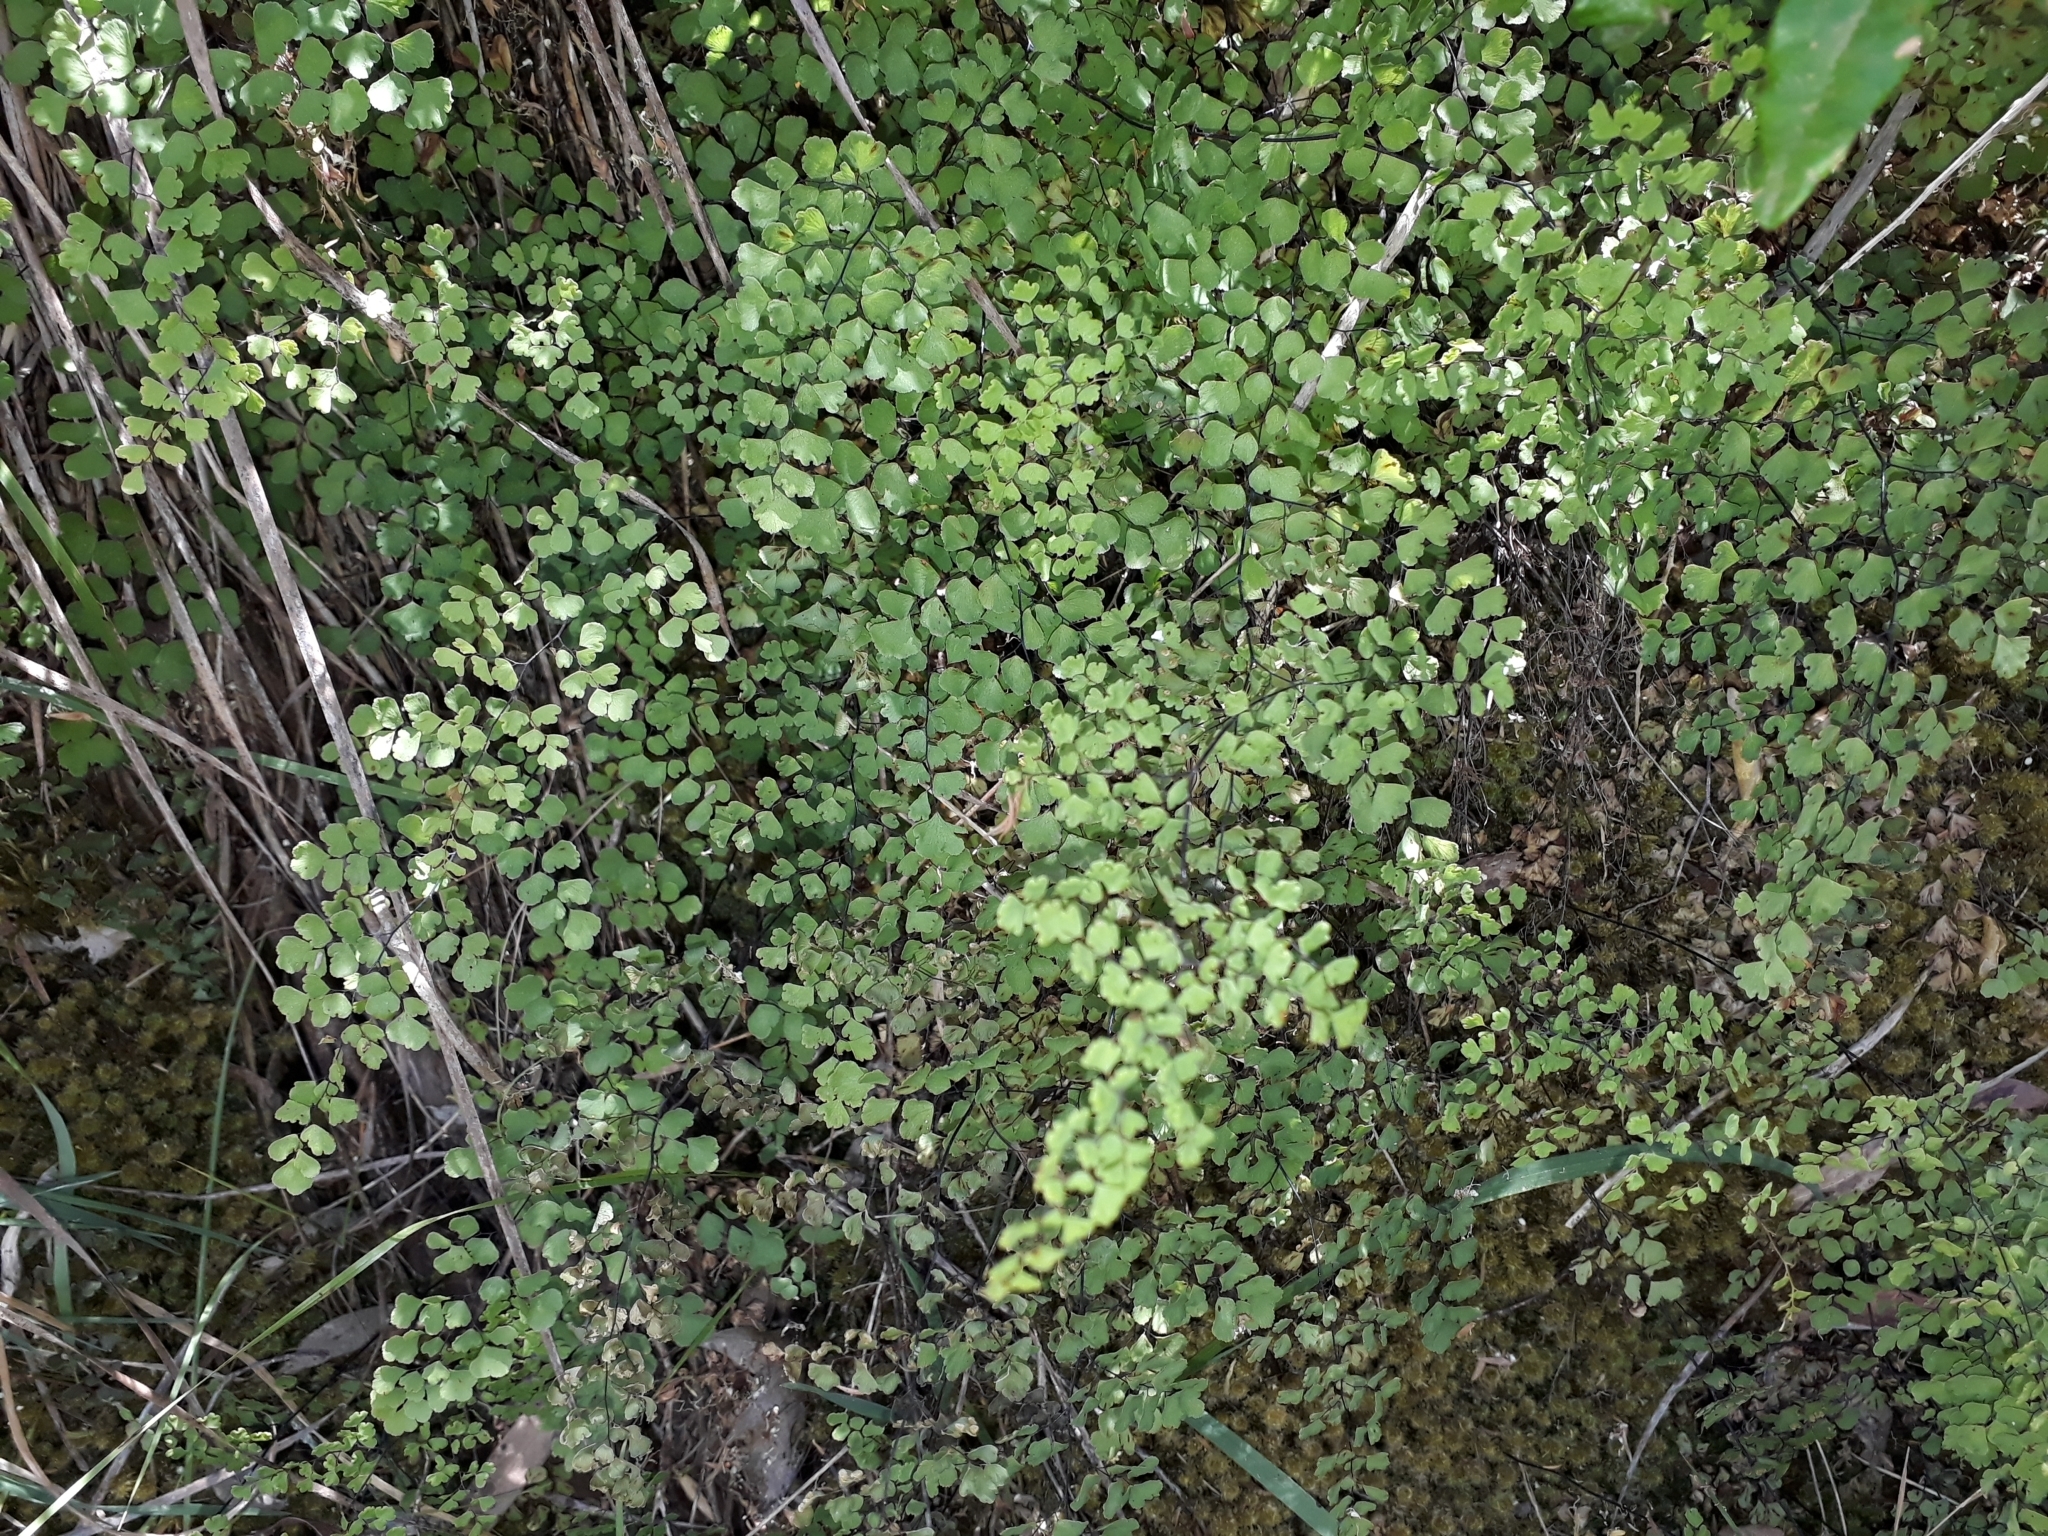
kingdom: Plantae
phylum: Tracheophyta
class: Polypodiopsida
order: Polypodiales
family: Pteridaceae
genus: Adiantum
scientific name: Adiantum aethiopicum
